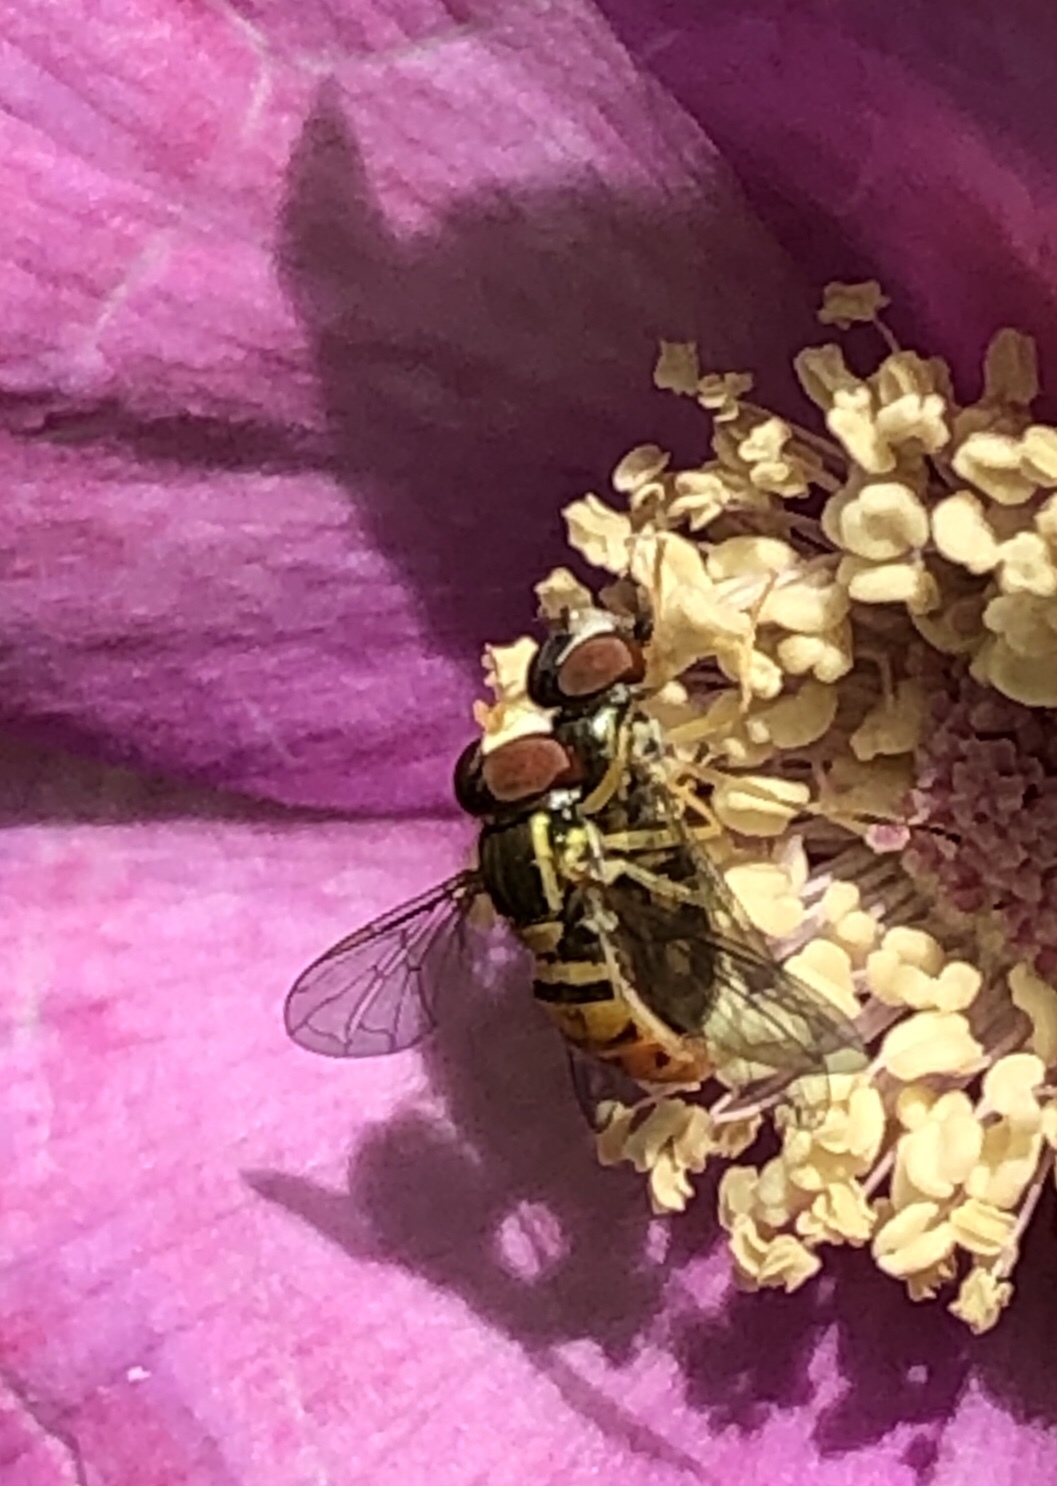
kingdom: Animalia
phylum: Arthropoda
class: Insecta
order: Diptera
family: Syrphidae
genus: Toxomerus
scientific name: Toxomerus marginatus
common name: Syrphid fly
